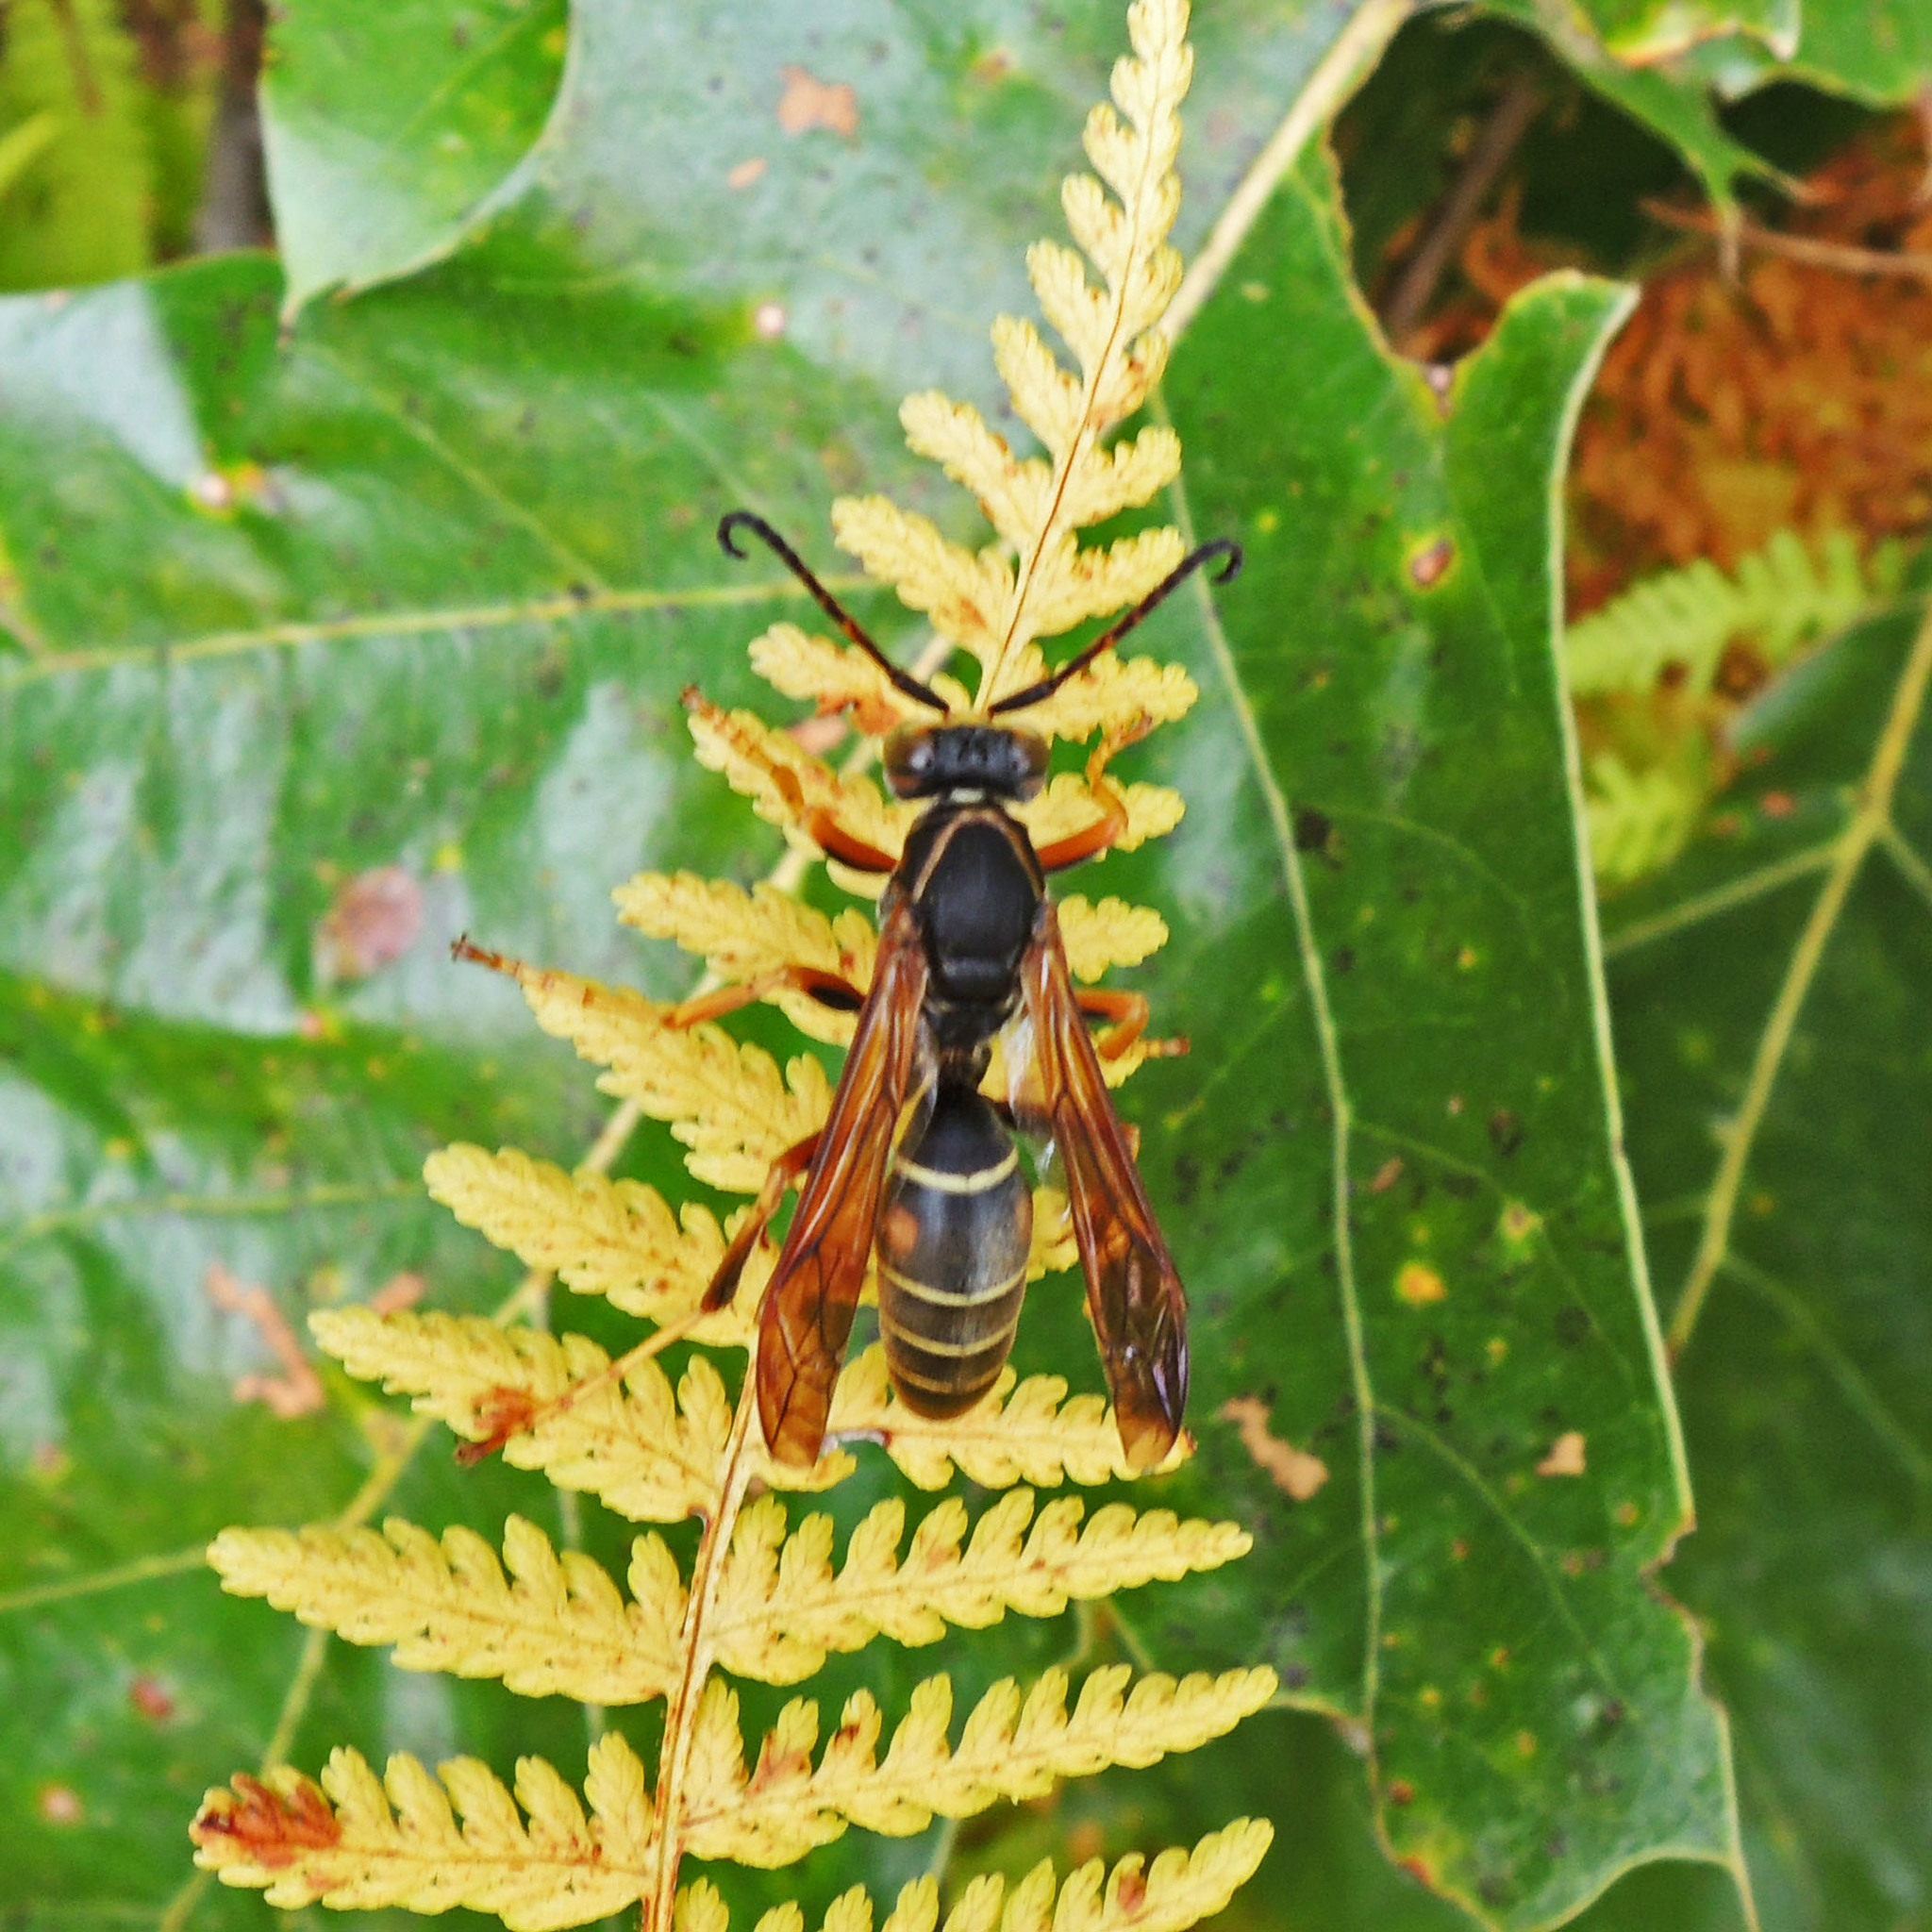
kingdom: Animalia
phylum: Arthropoda
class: Insecta
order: Hymenoptera
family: Eumenidae
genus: Polistes
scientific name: Polistes fuscatus
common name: Dark paper wasp
